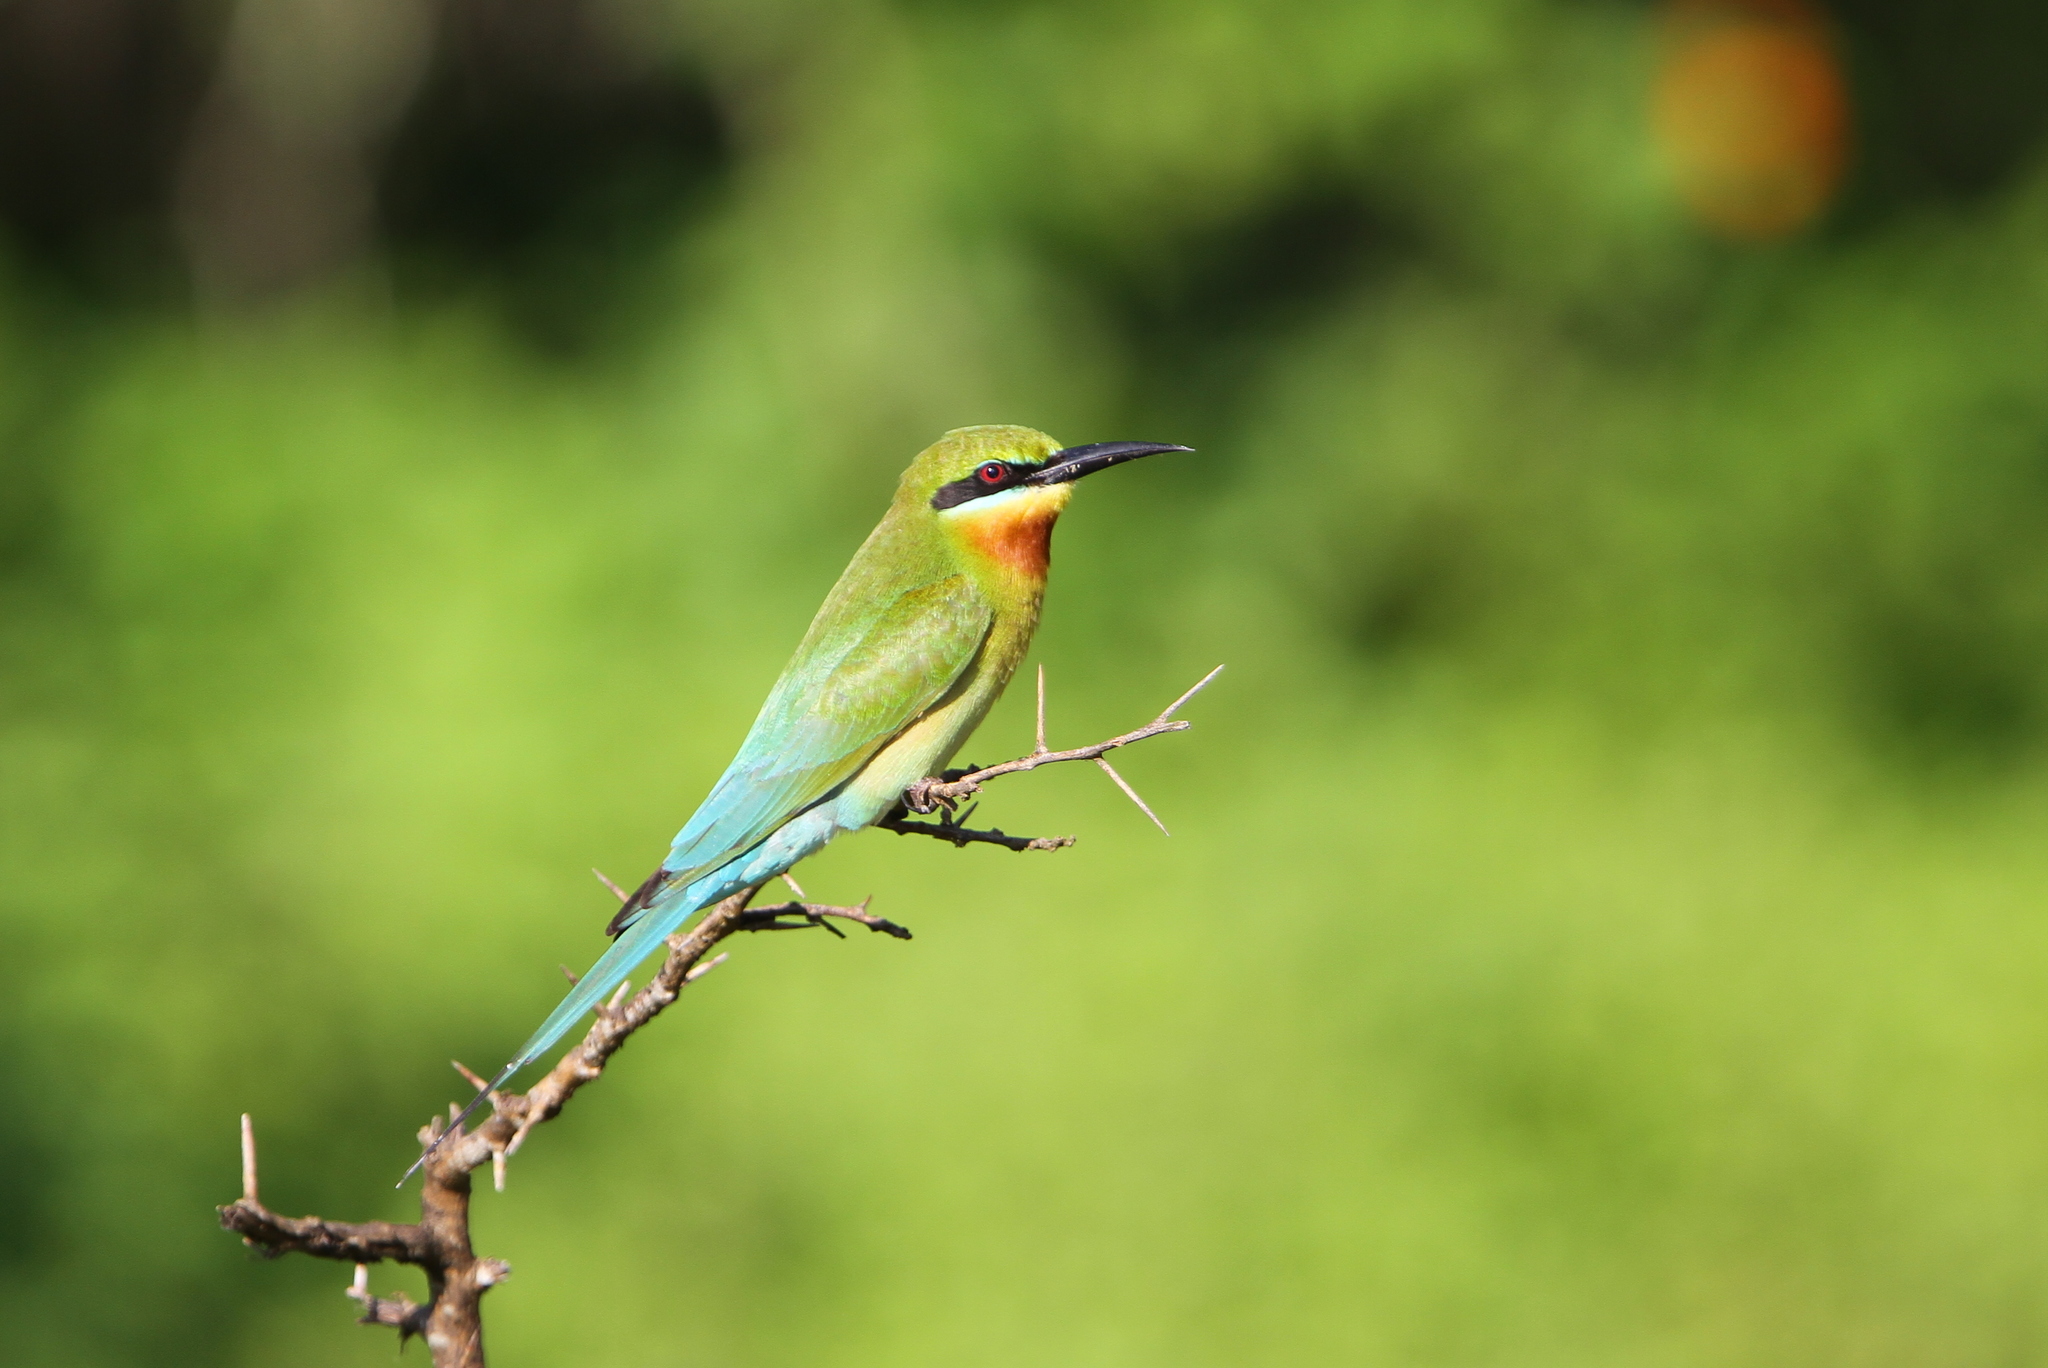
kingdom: Animalia
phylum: Chordata
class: Aves
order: Coraciiformes
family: Meropidae
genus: Merops
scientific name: Merops philippinus
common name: Blue-tailed bee-eater
